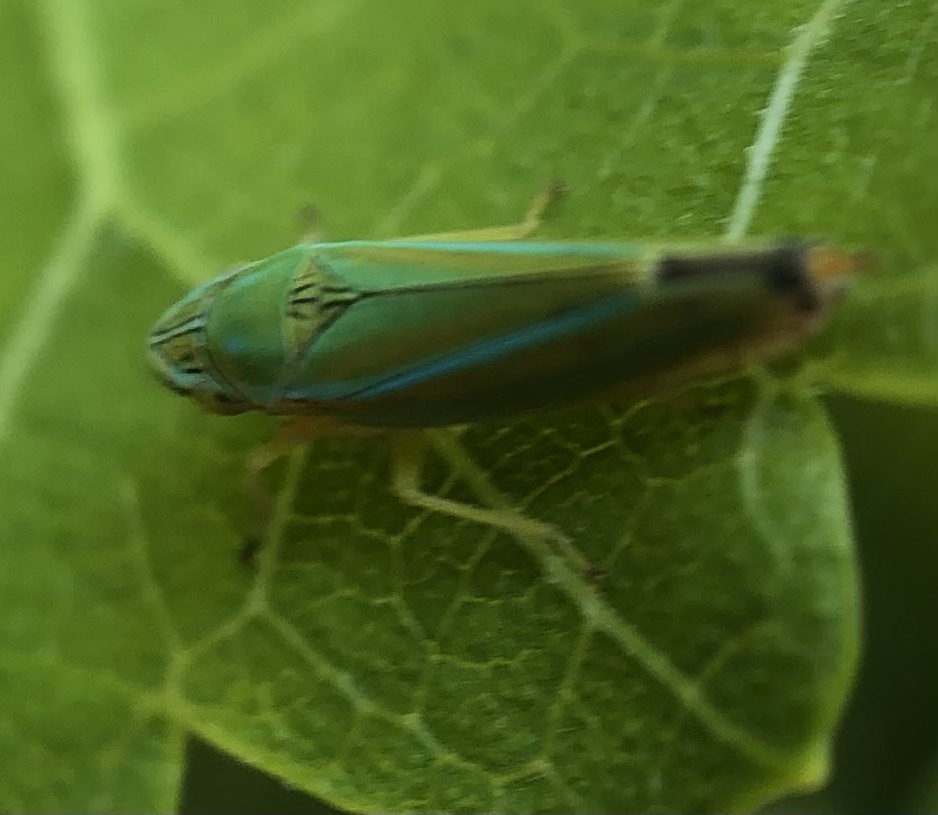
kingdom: Animalia
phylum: Arthropoda
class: Insecta
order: Hemiptera
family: Cicadellidae
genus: Graphocephala
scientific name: Graphocephala versuta
